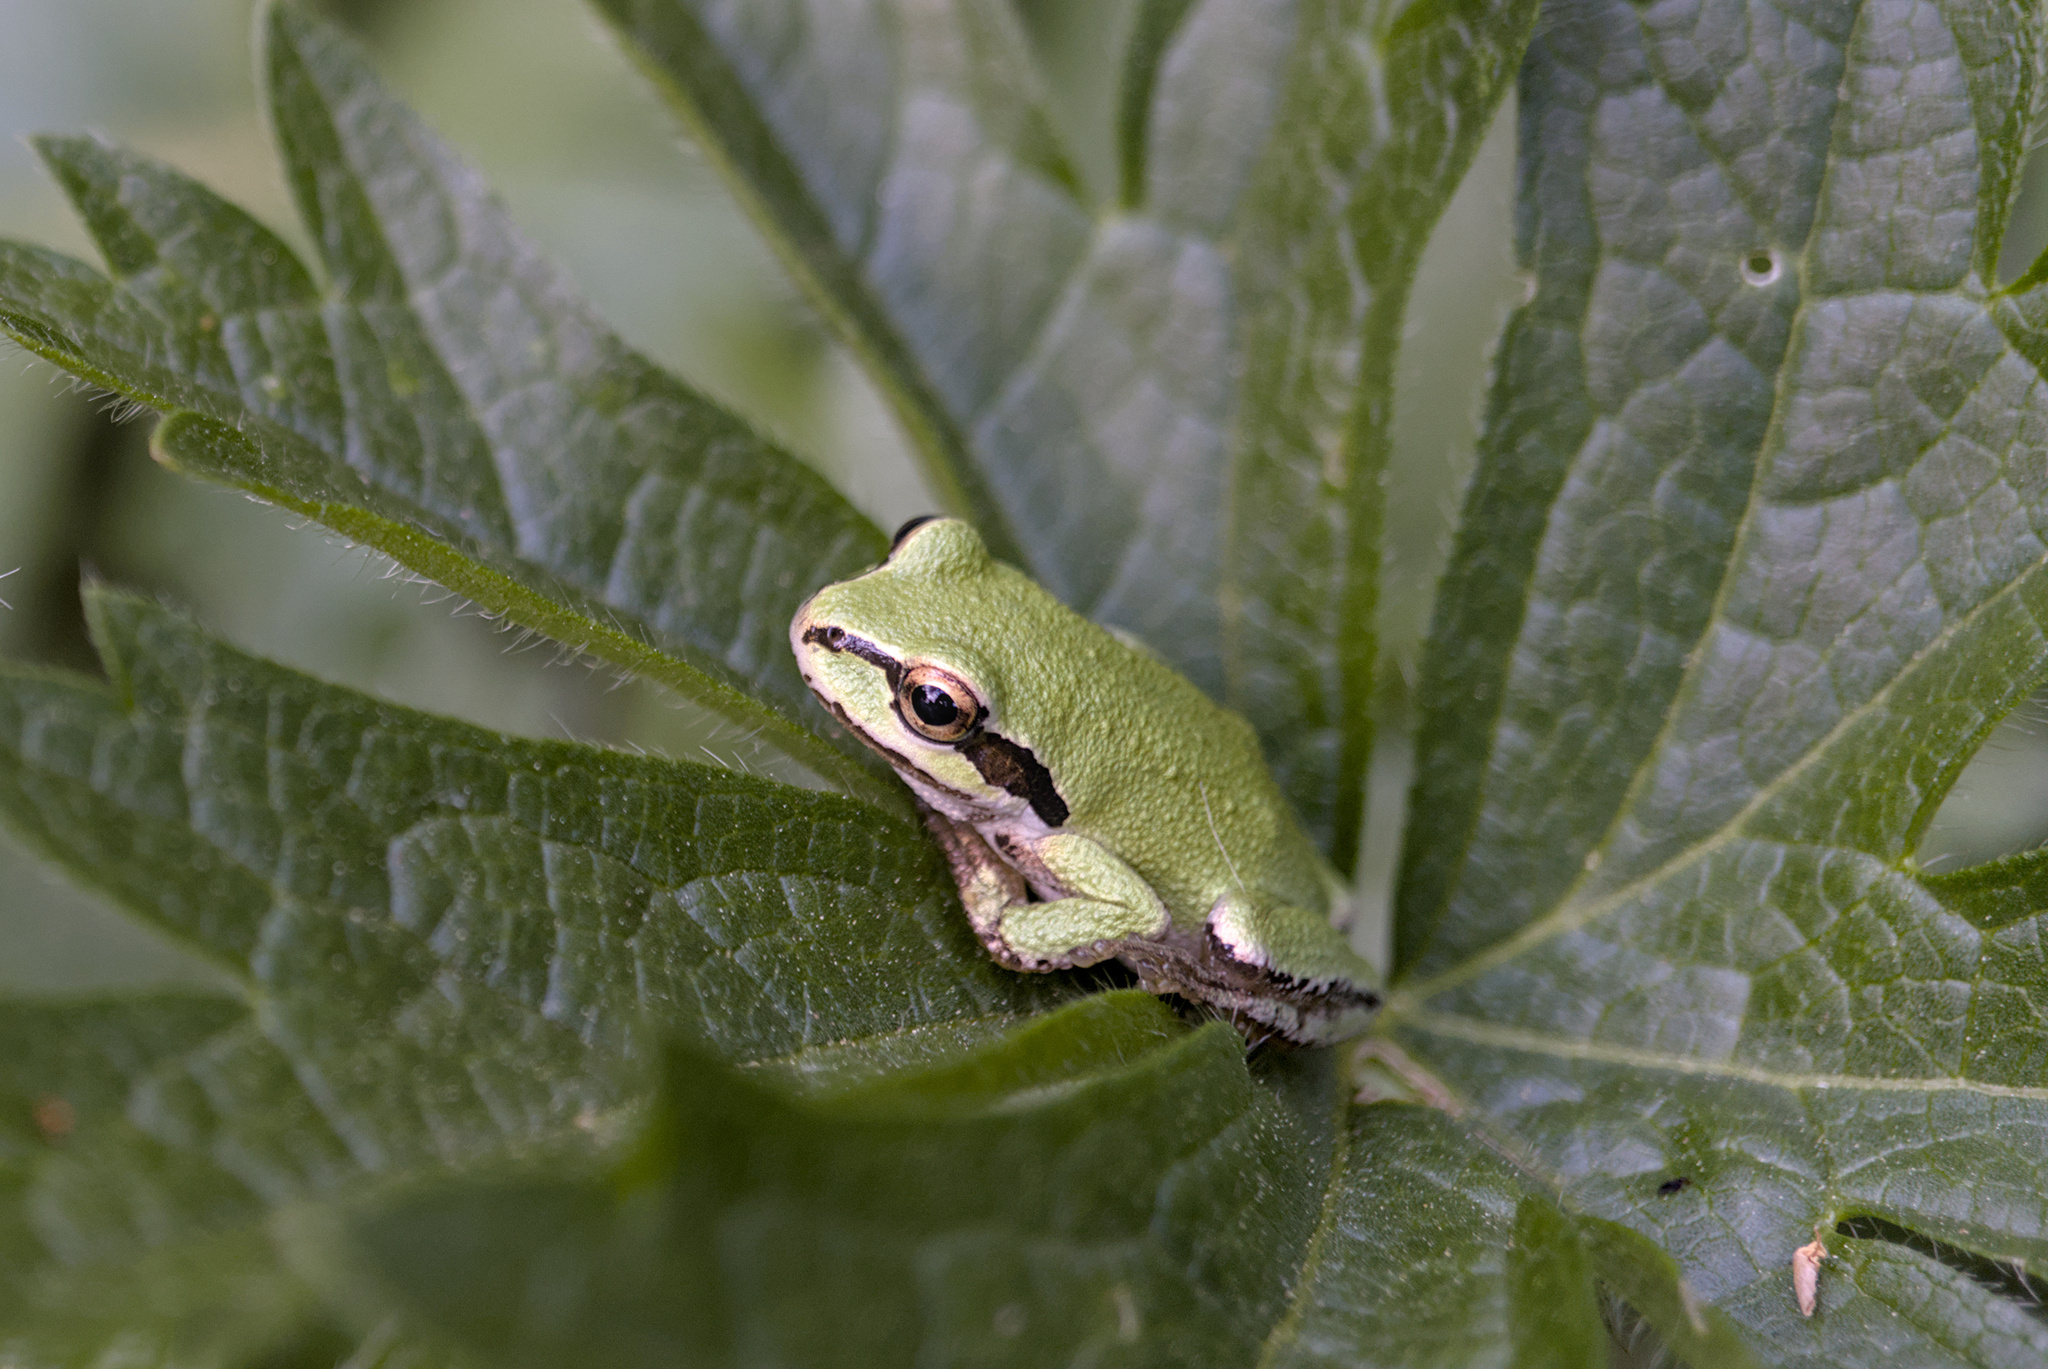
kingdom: Animalia
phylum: Chordata
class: Amphibia
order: Anura
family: Hylidae
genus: Pseudacris
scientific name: Pseudacris regilla
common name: Pacific chorus frog
